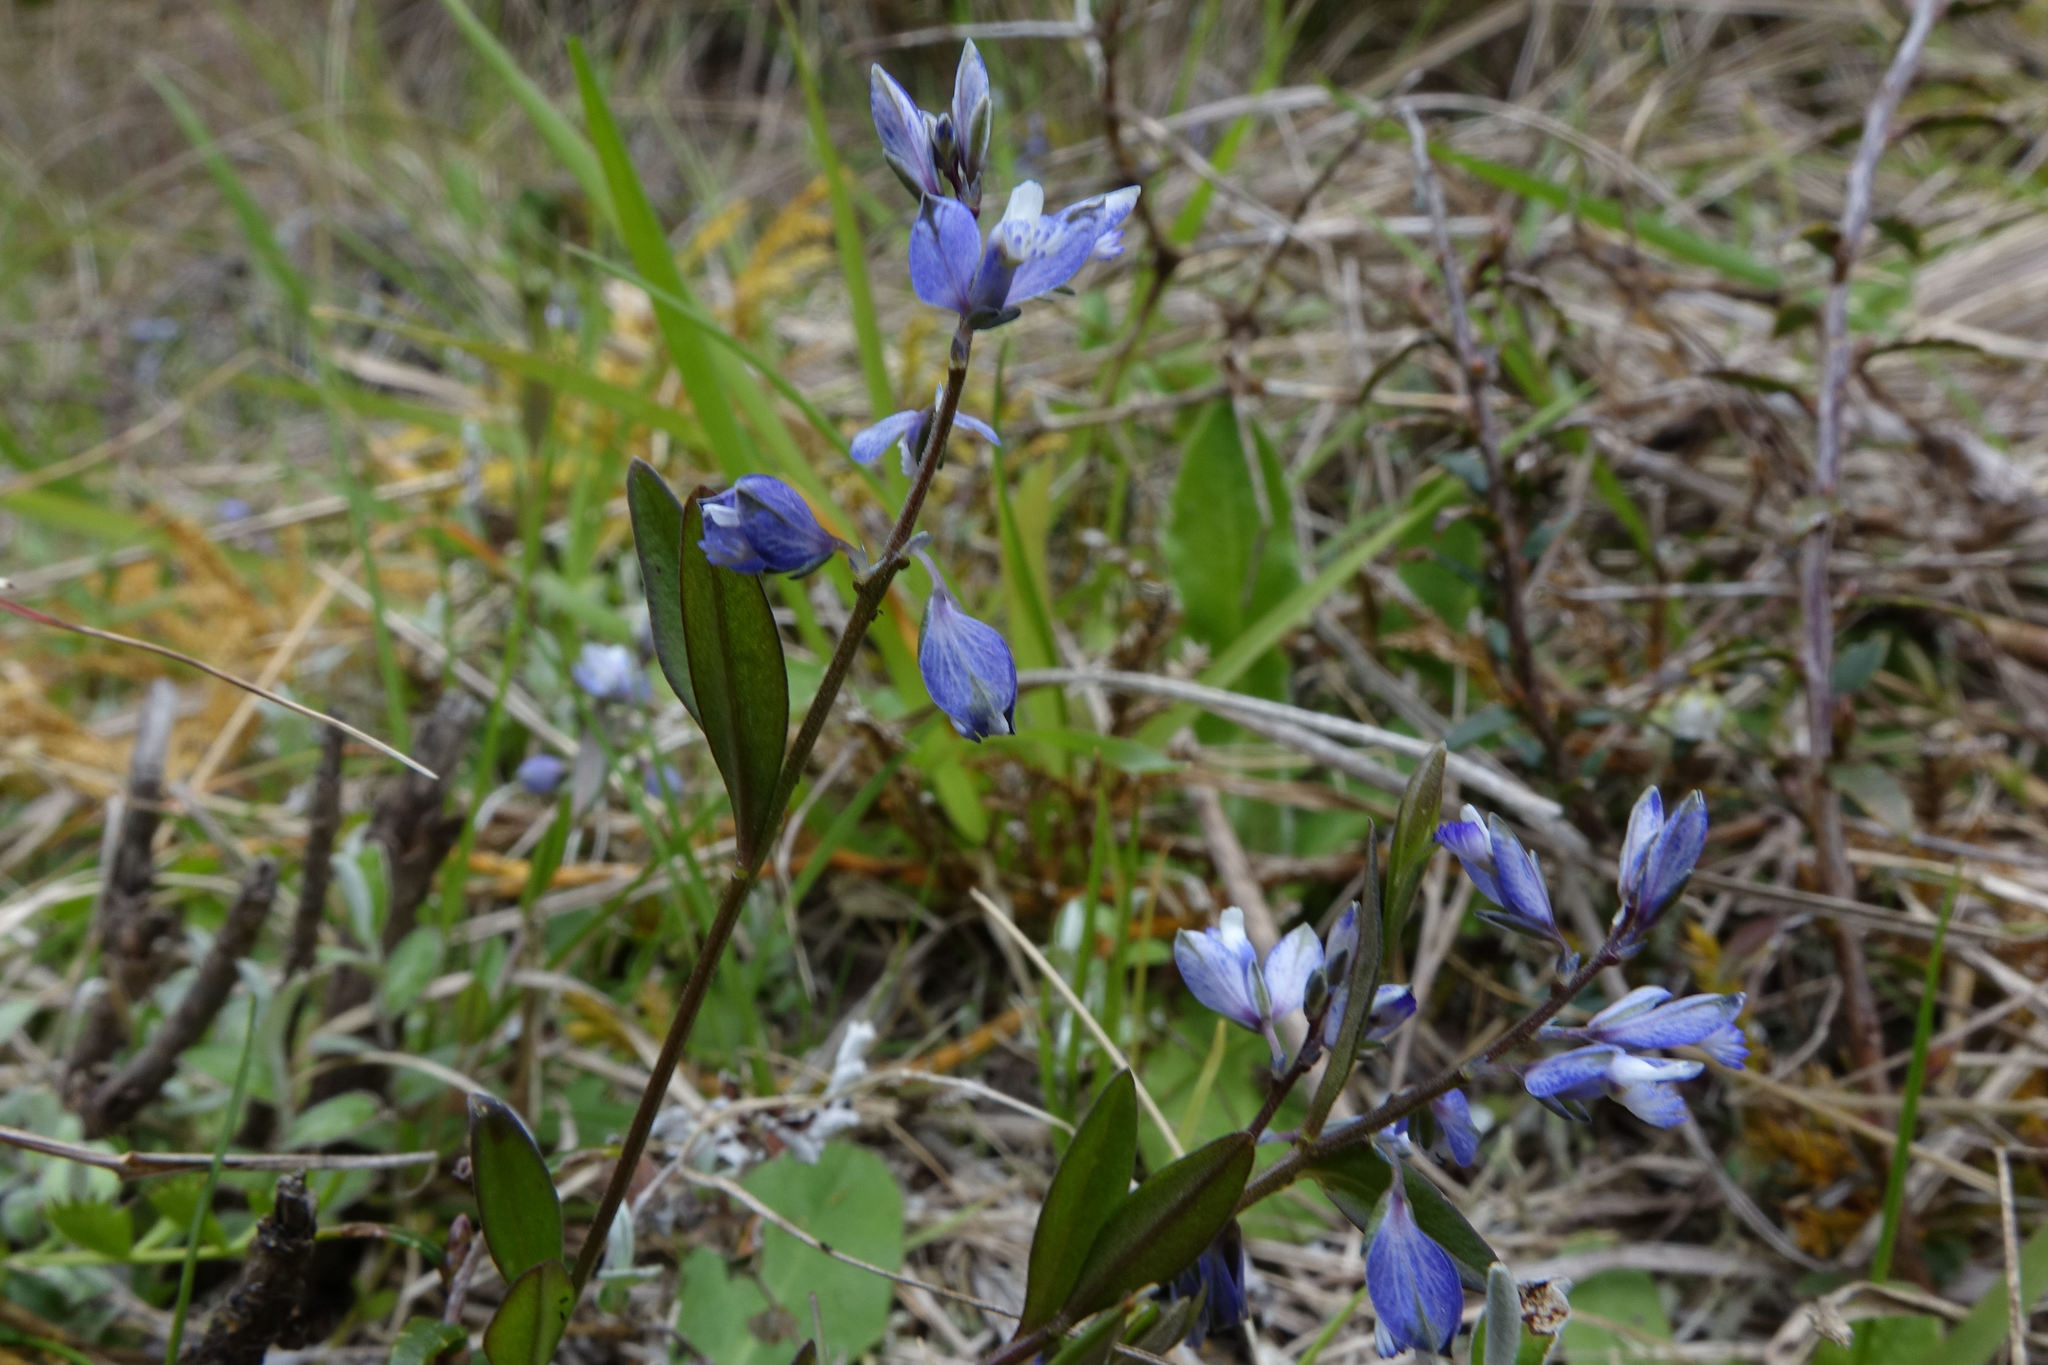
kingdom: Plantae
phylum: Tracheophyta
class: Magnoliopsida
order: Fabales
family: Polygalaceae
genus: Polygala
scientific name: Polygala serpyllifolia
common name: Heath milkwort
